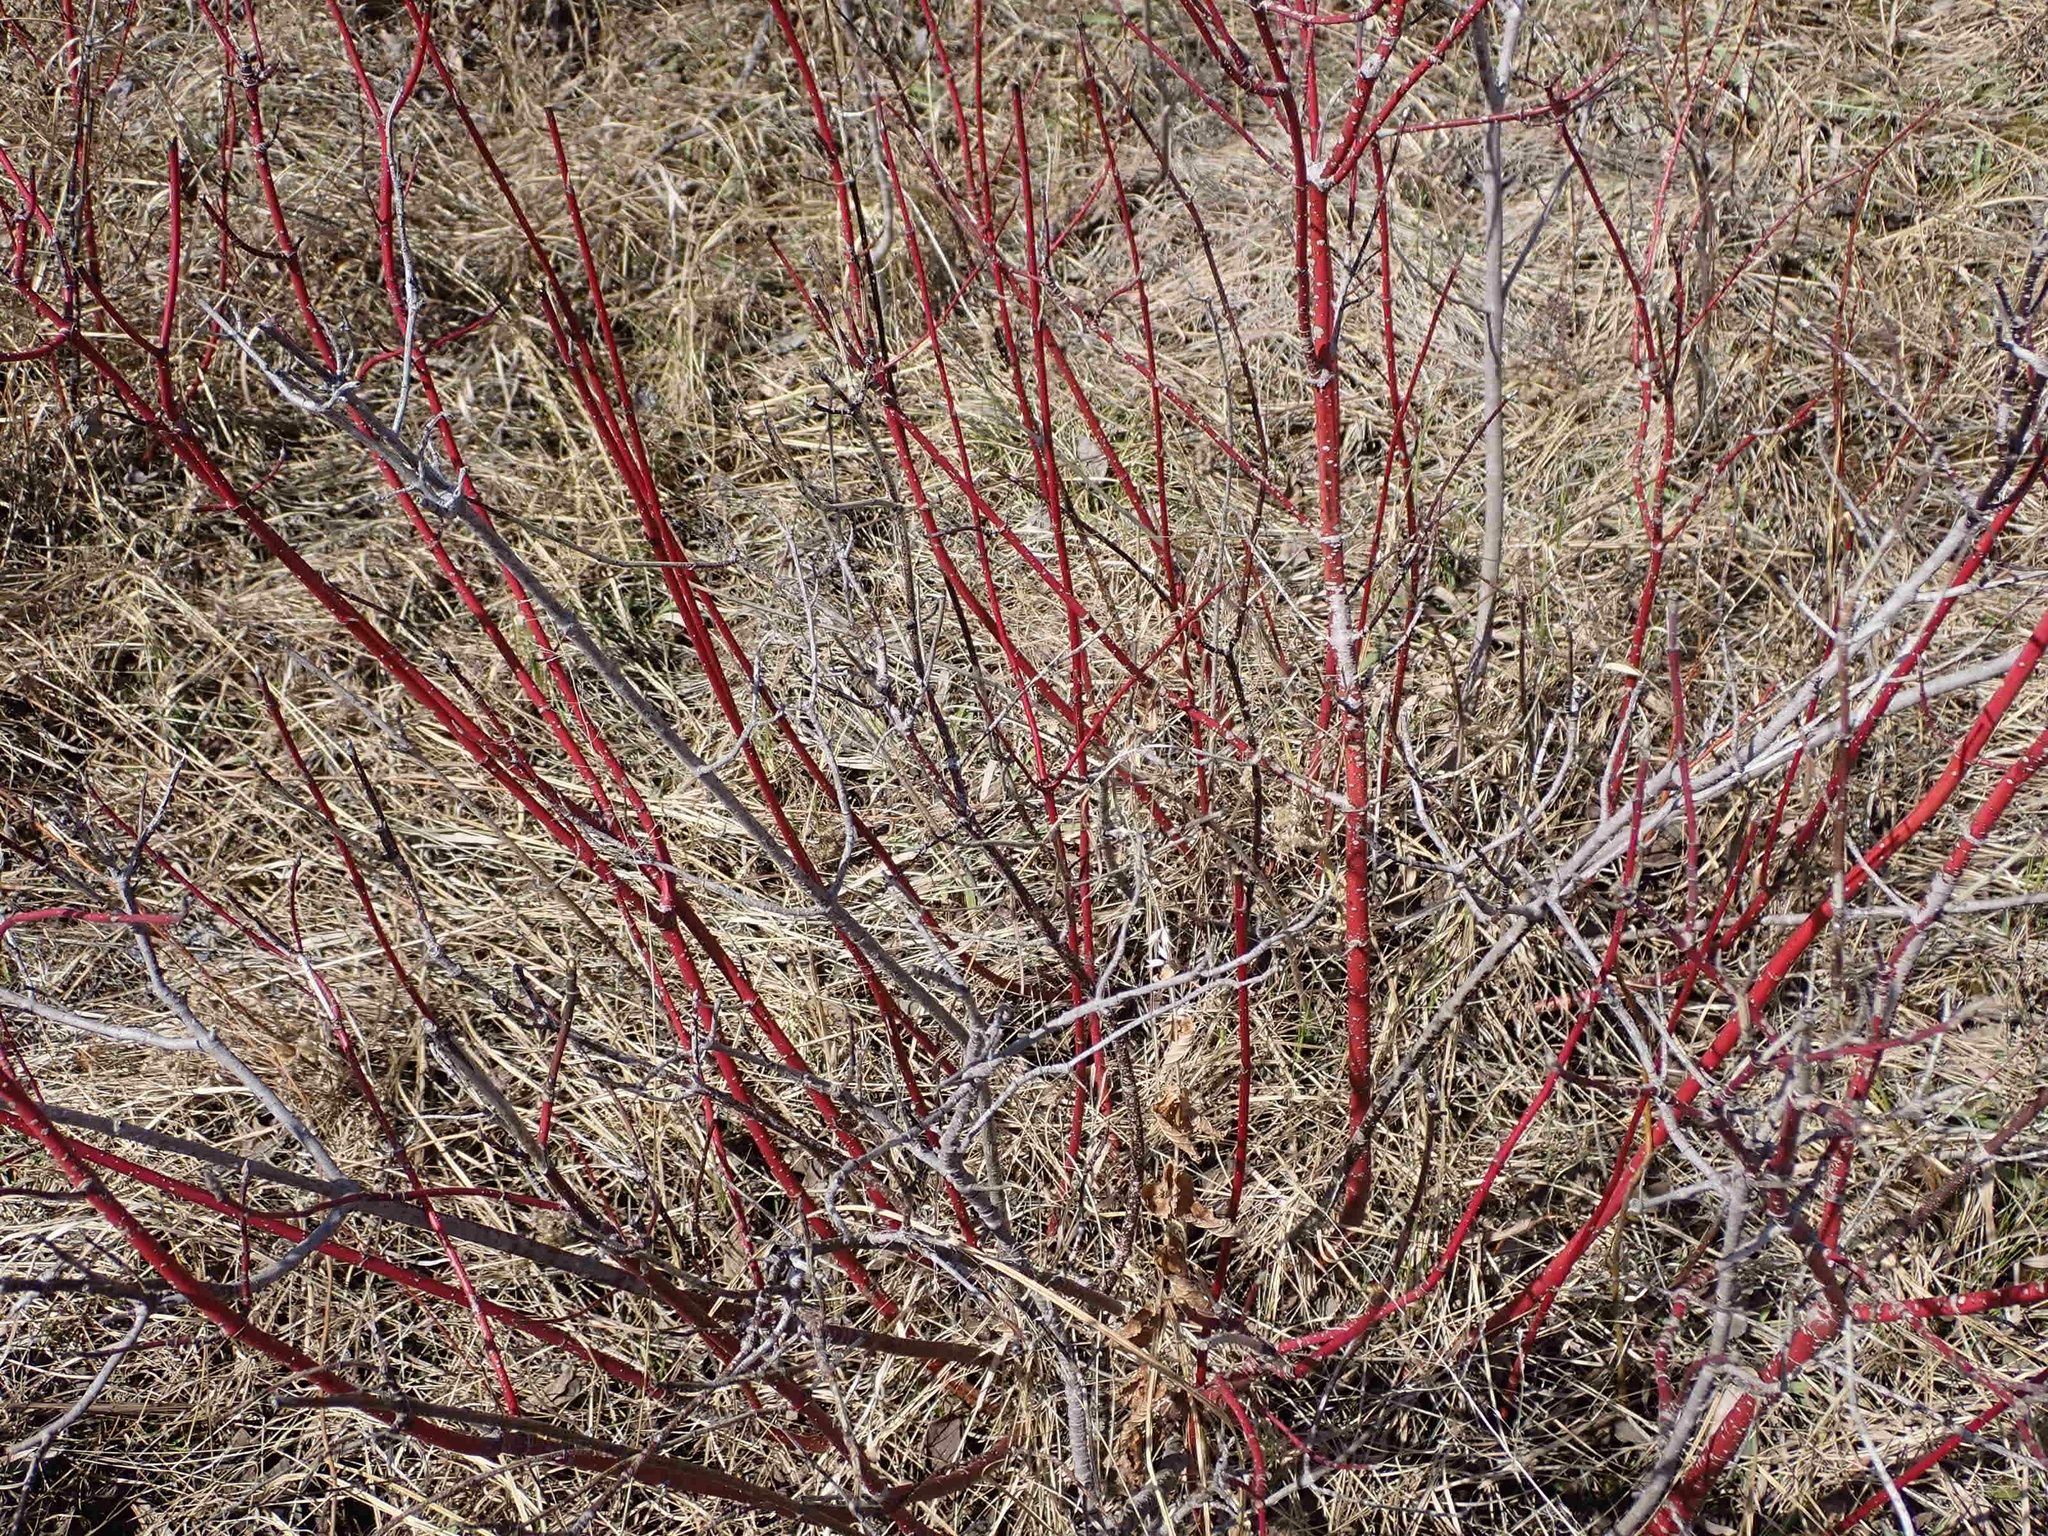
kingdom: Plantae
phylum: Tracheophyta
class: Magnoliopsida
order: Cornales
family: Cornaceae
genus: Cornus
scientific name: Cornus sericea
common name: Red-osier dogwood
